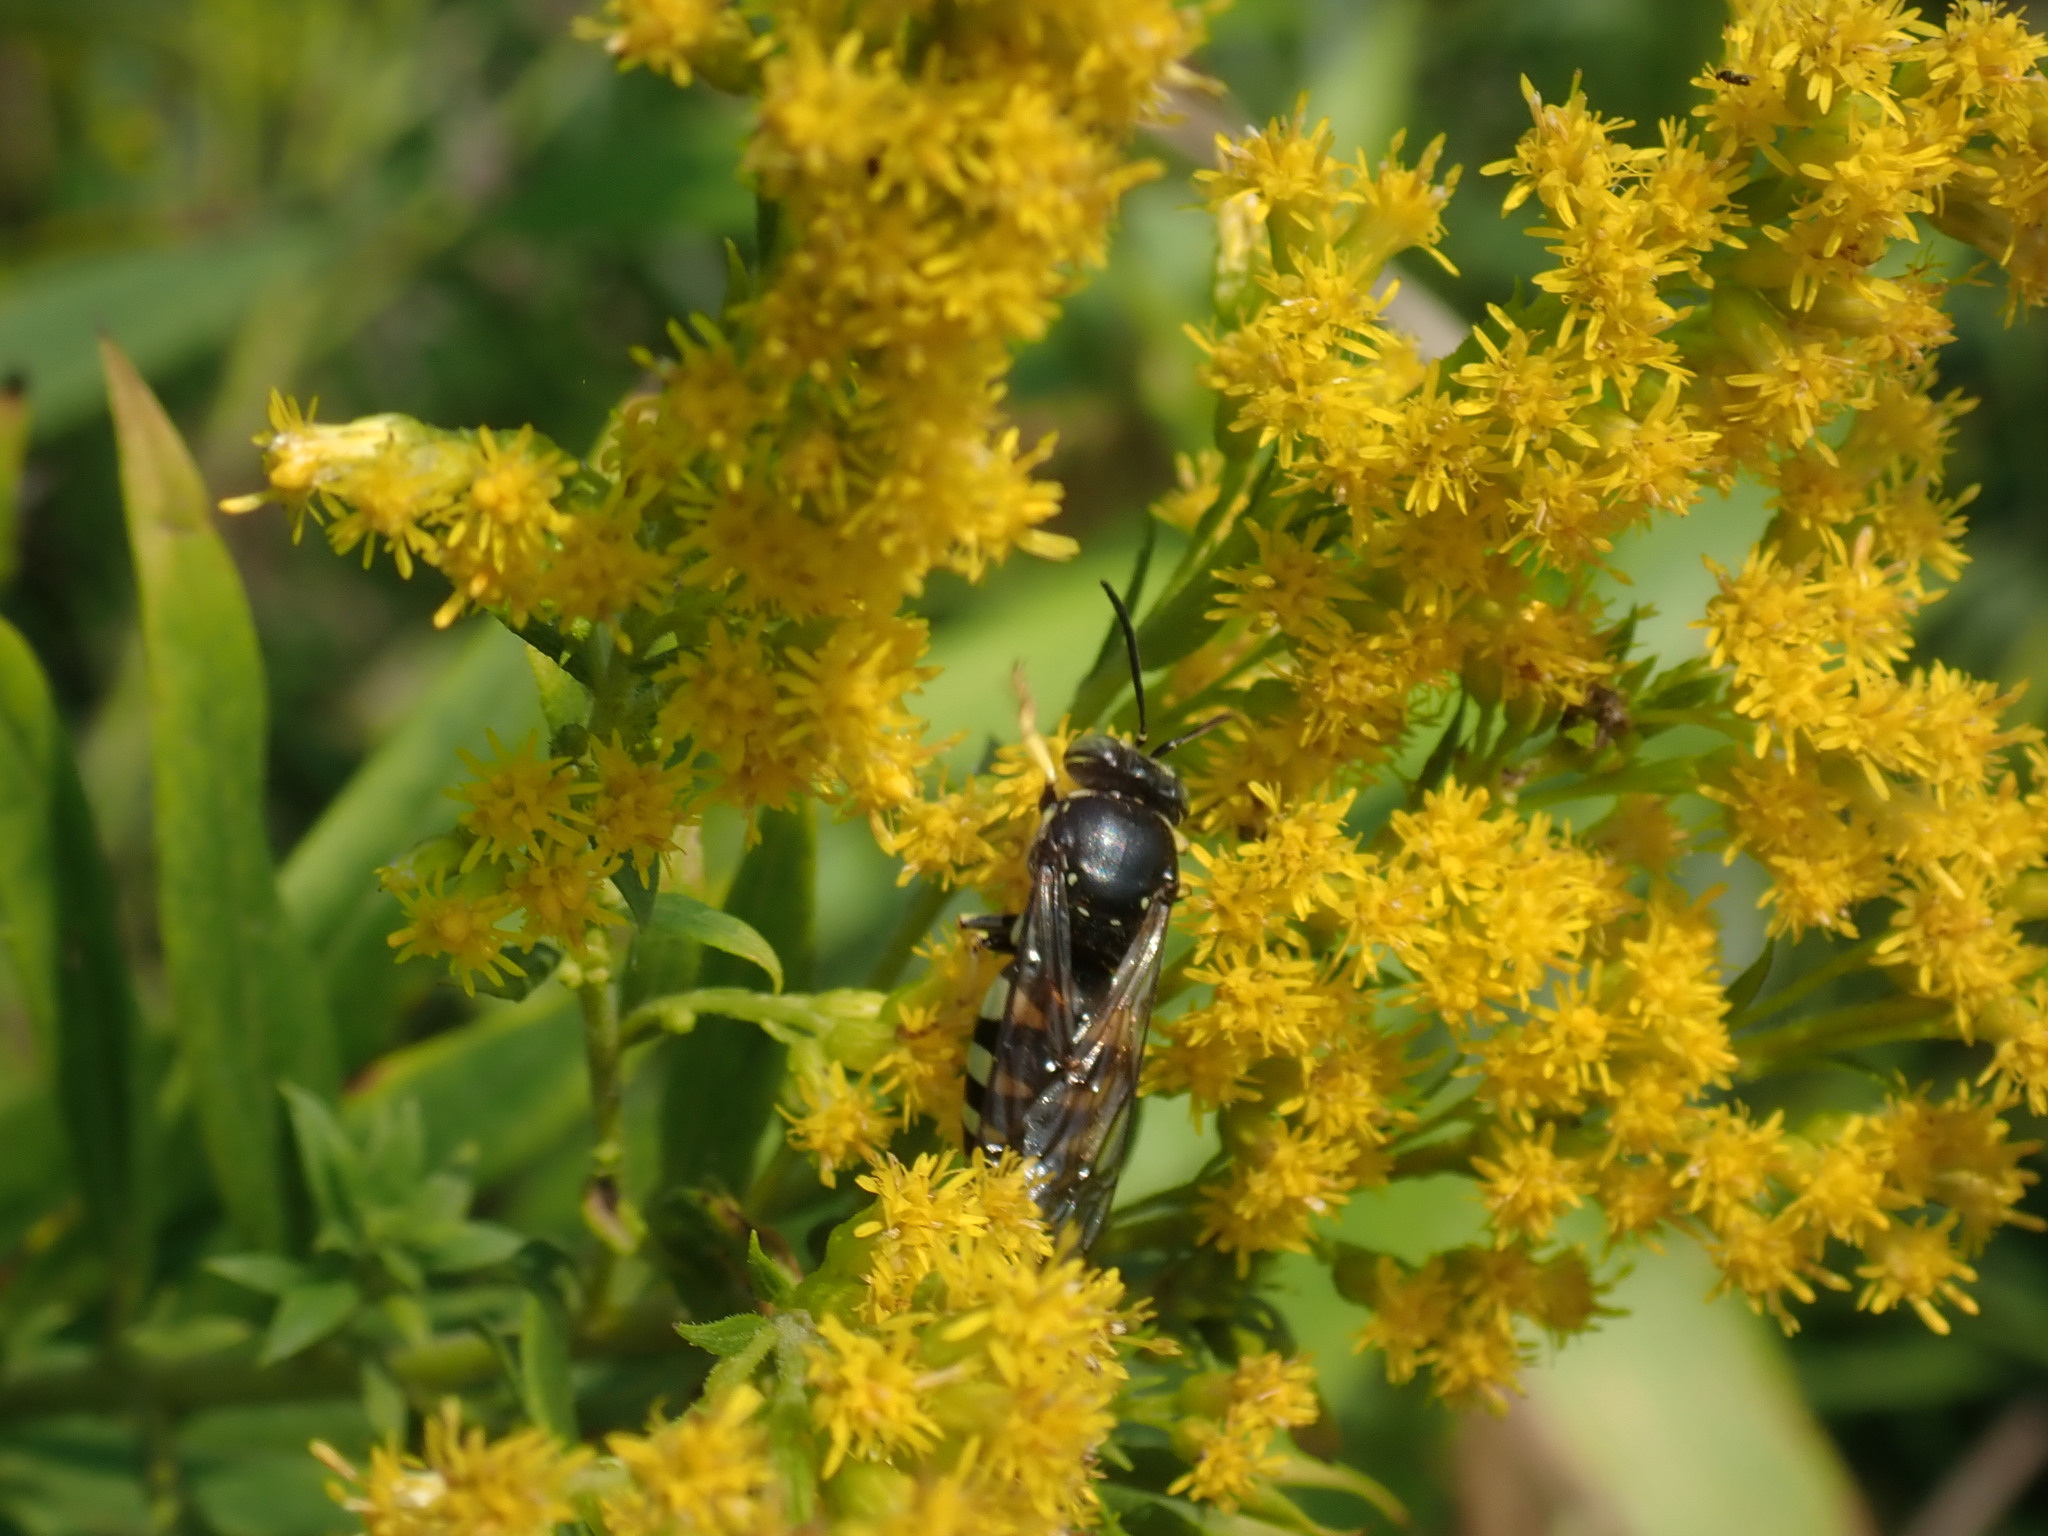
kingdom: Animalia
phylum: Arthropoda
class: Insecta
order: Hymenoptera
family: Crabronidae
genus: Bicyrtes
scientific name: Bicyrtes quadrifasciatus
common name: Four-banded stink bug hunter wasp
